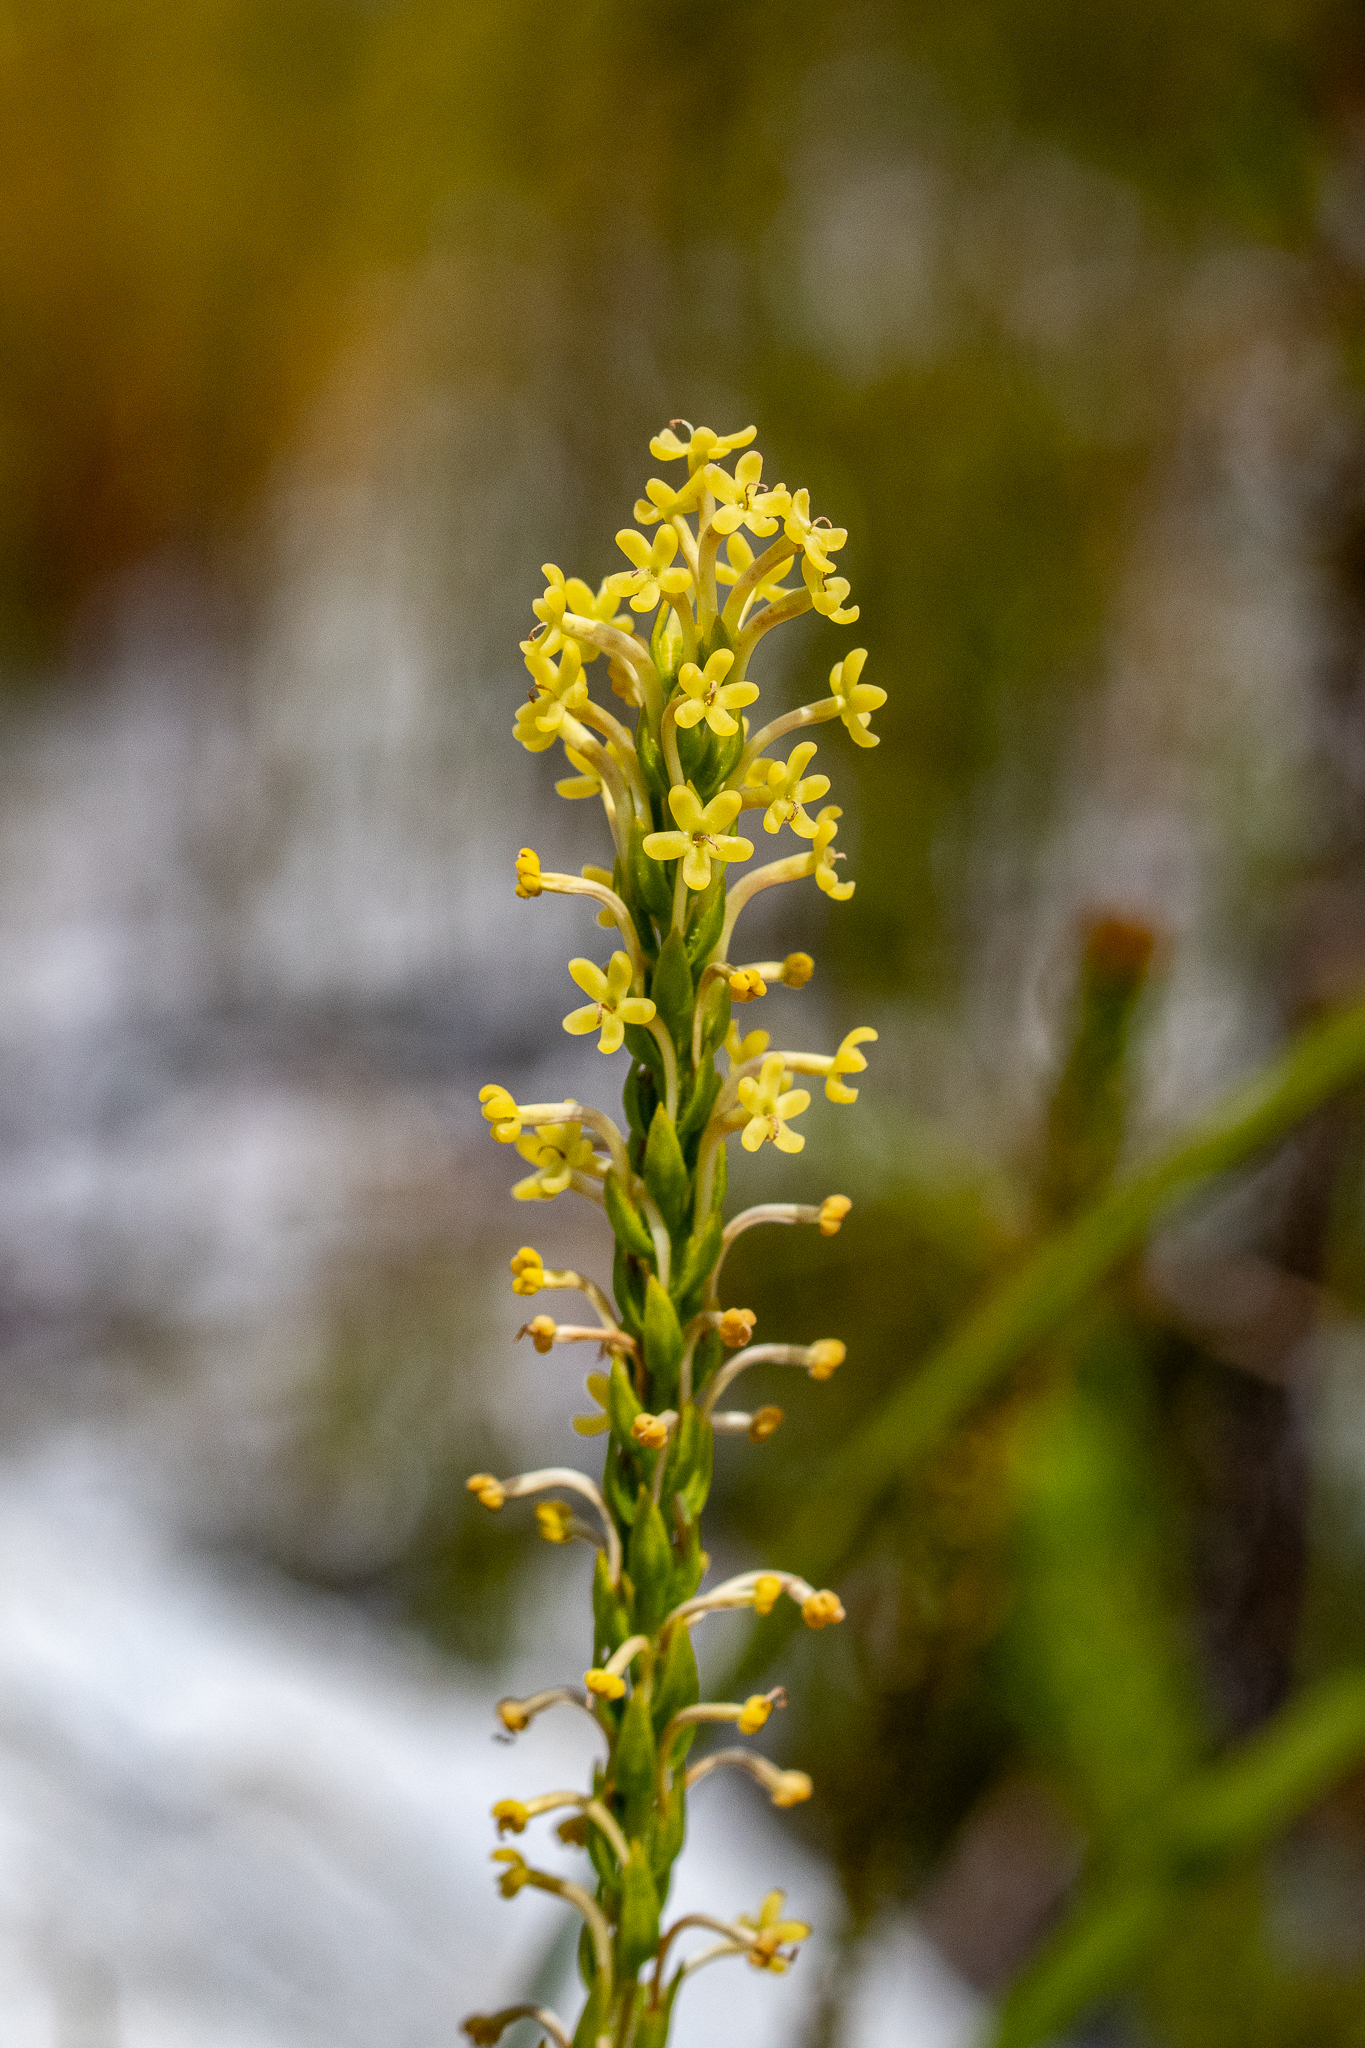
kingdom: Plantae
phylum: Tracheophyta
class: Magnoliopsida
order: Lamiales
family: Scrophulariaceae
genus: Microdon
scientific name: Microdon dubius
